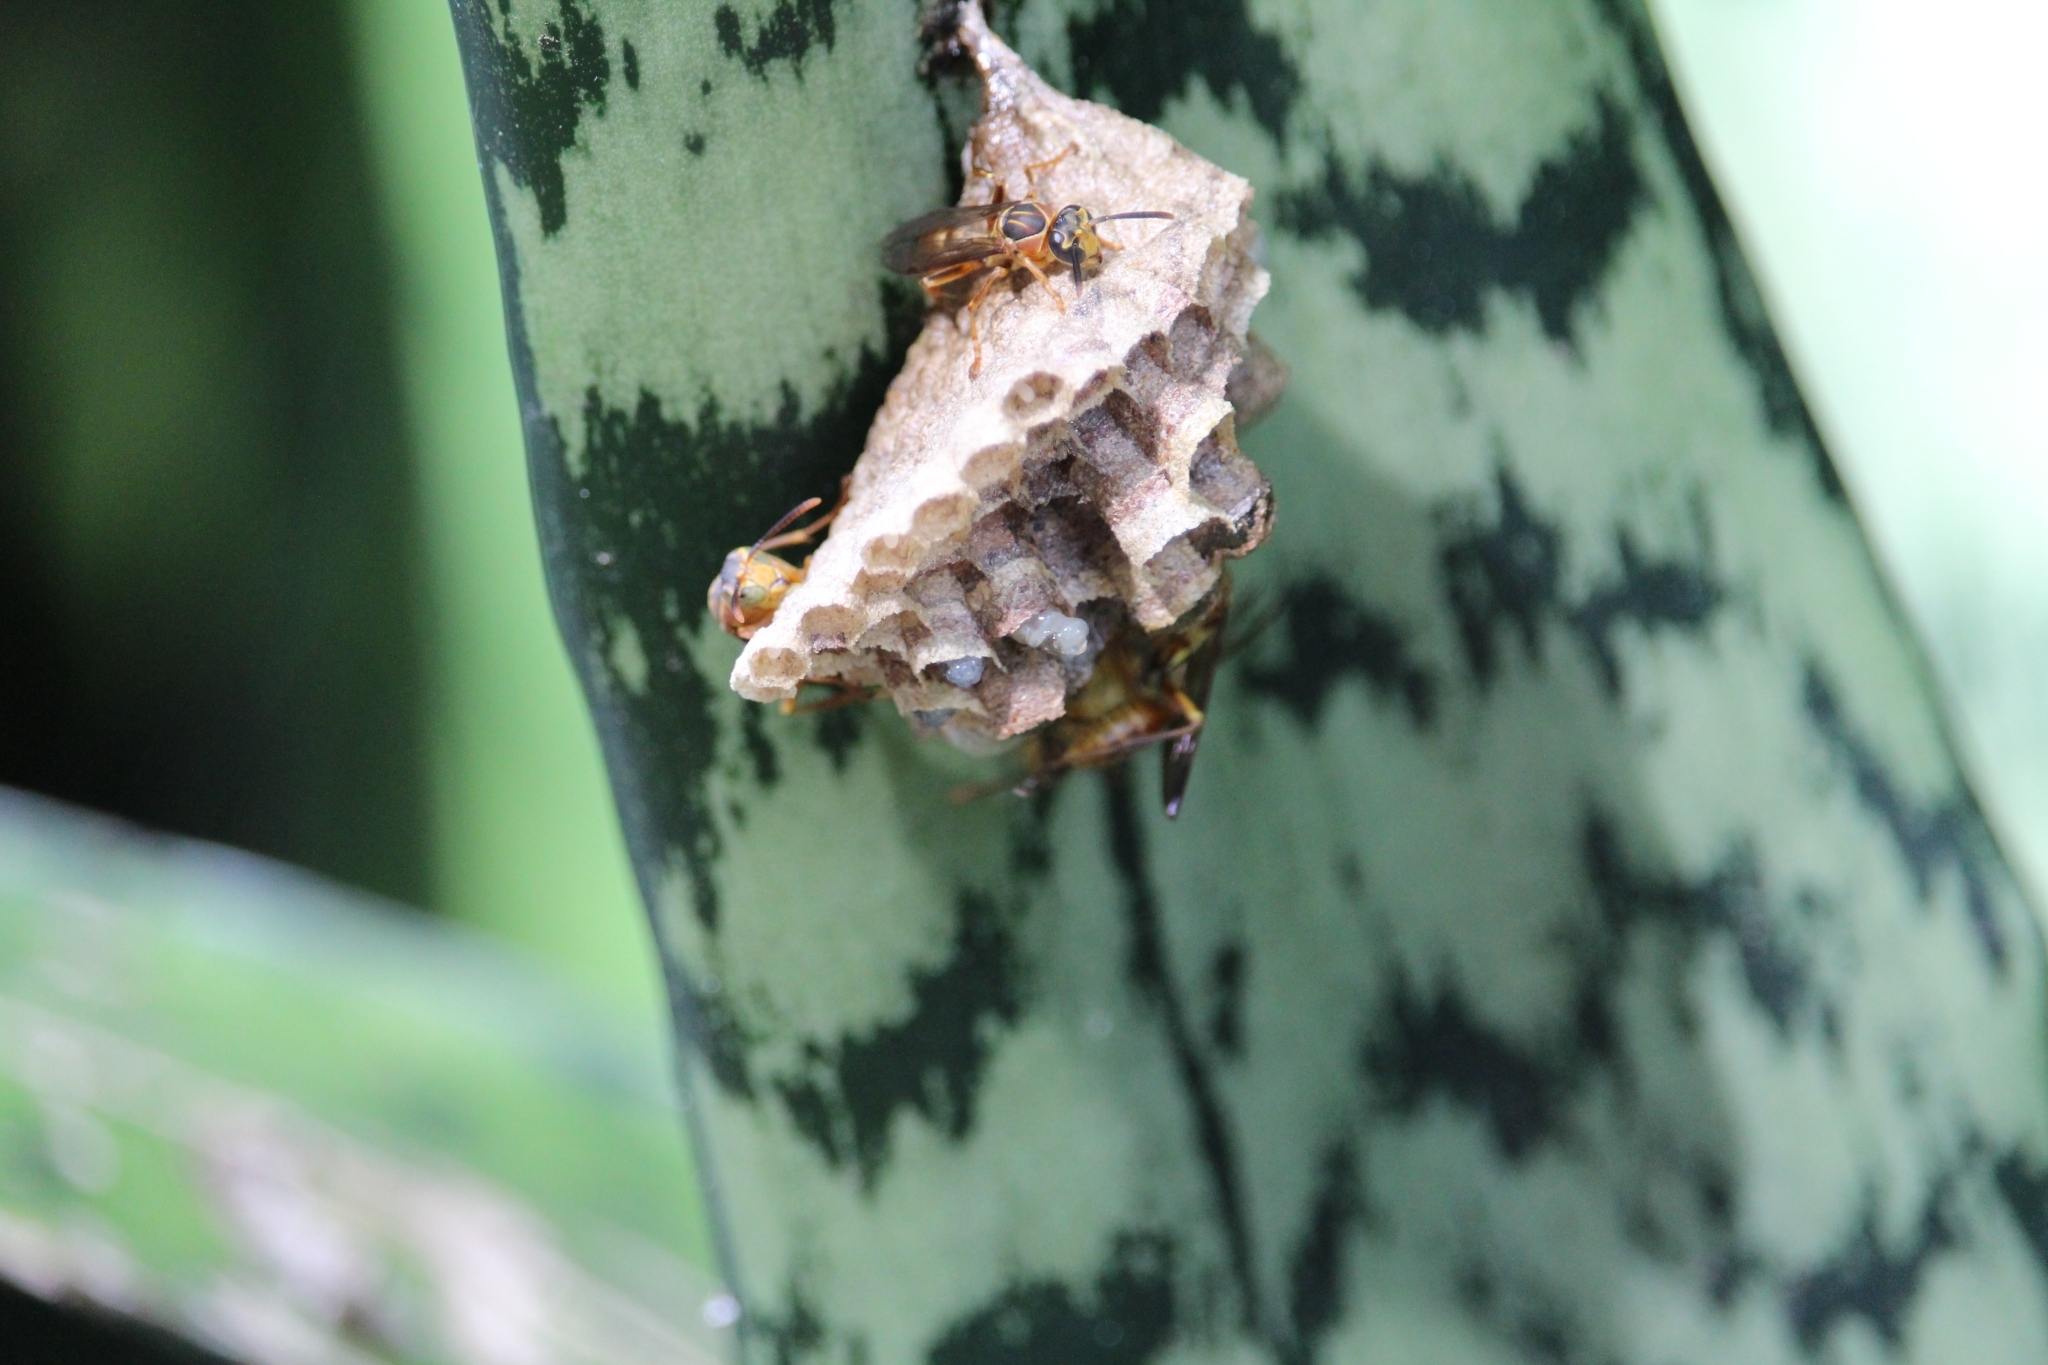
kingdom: Animalia
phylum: Arthropoda
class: Insecta
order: Hymenoptera
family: Vespidae
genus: Mischocyttarus
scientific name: Mischocyttarus angulatus
